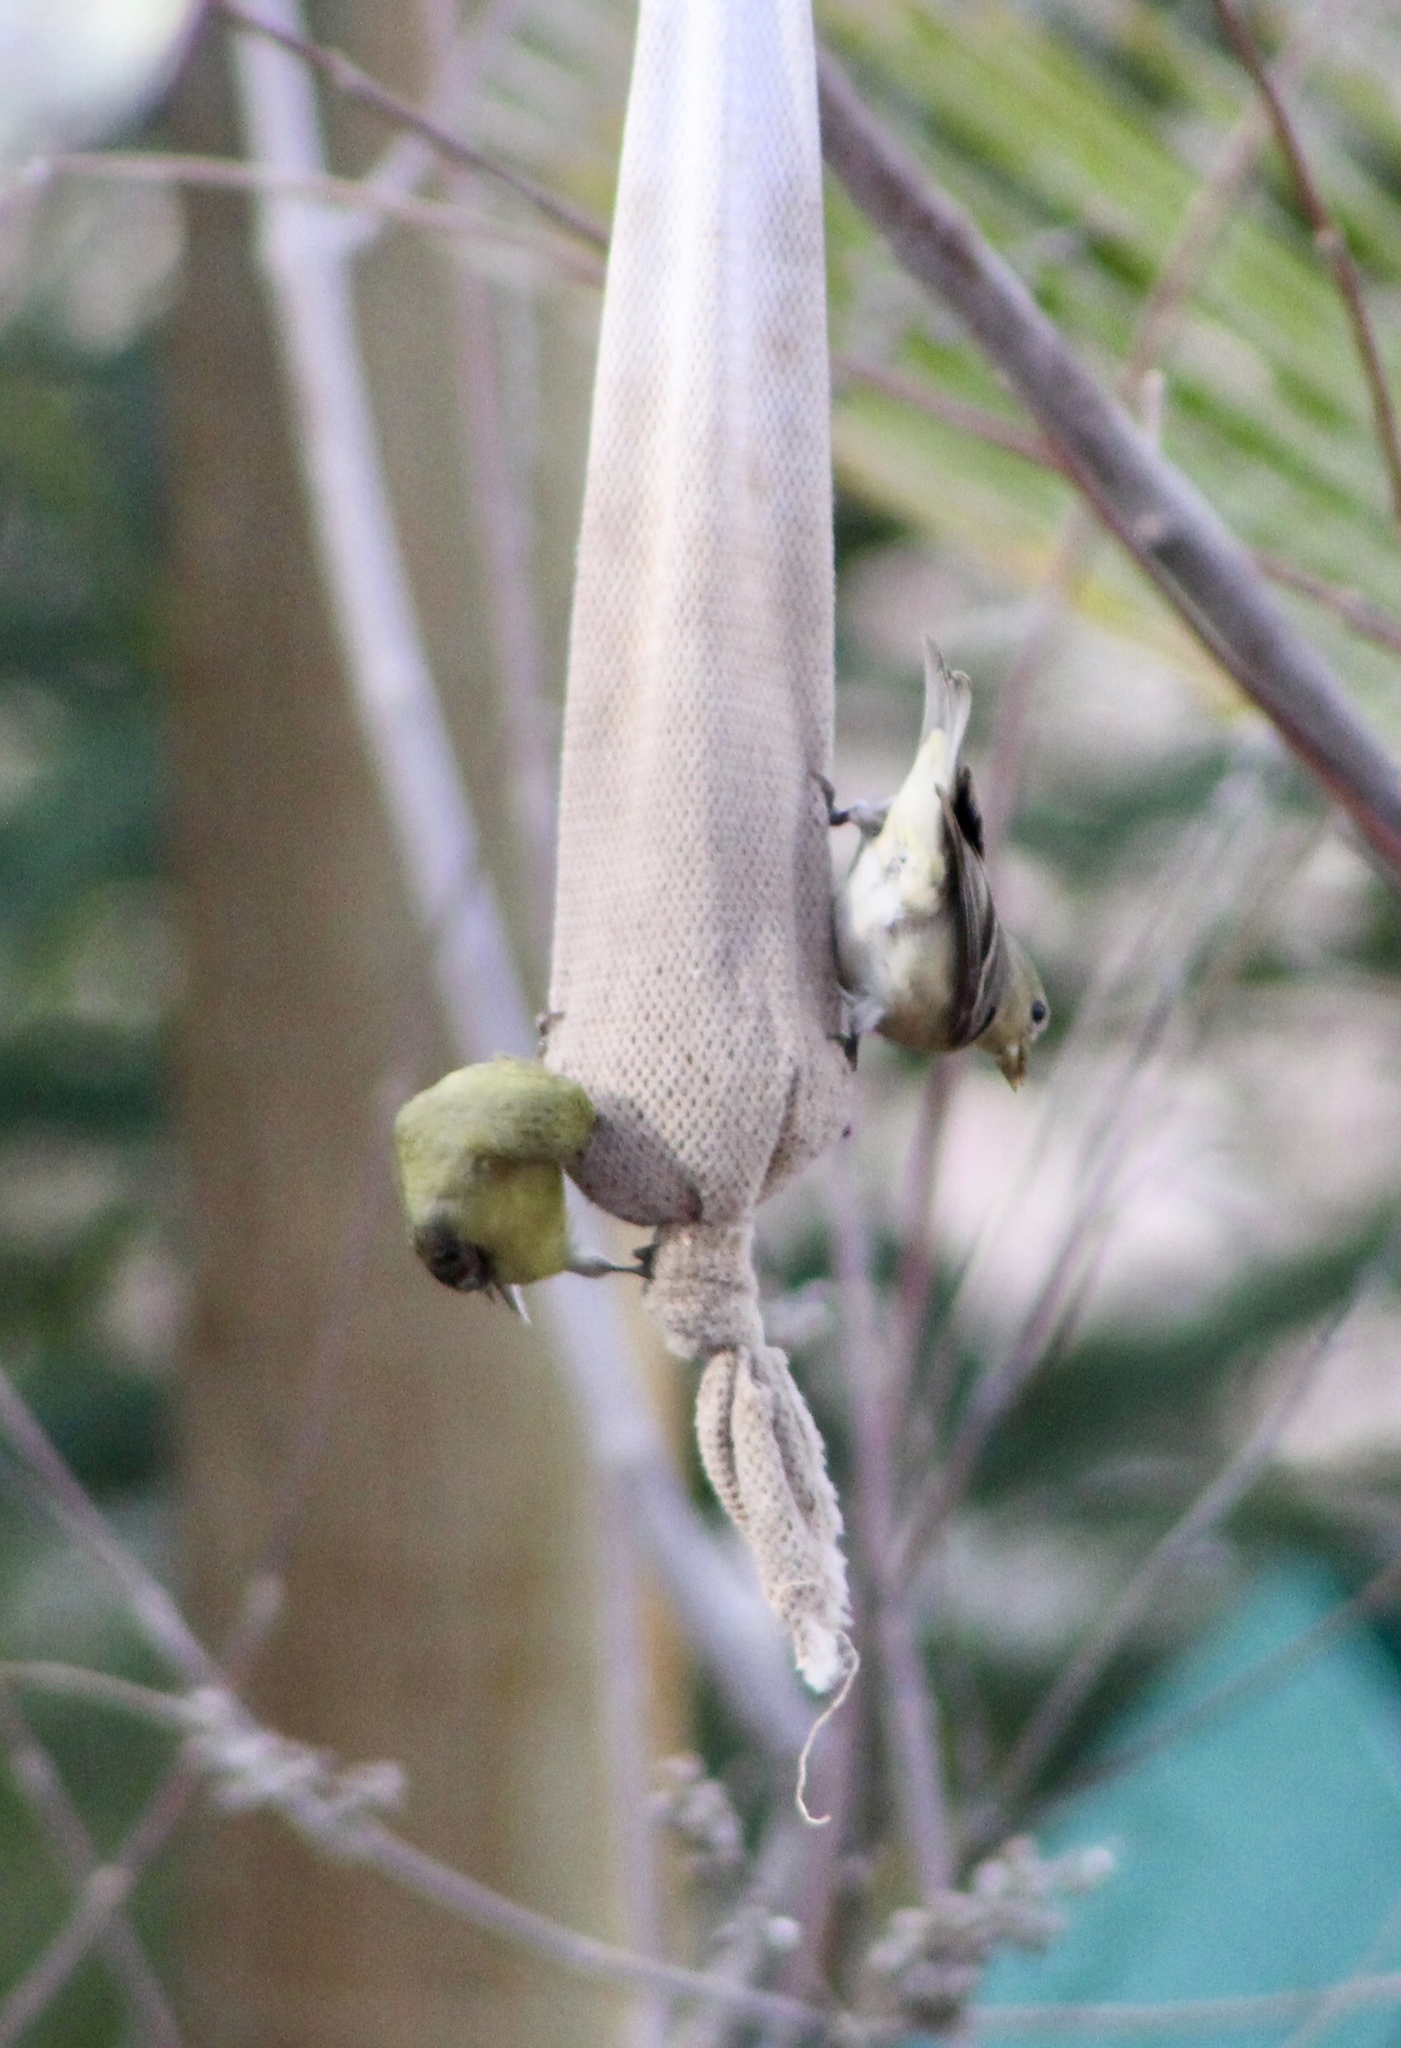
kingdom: Animalia
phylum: Chordata
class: Aves
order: Passeriformes
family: Fringillidae
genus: Spinus
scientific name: Spinus psaltria
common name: Lesser goldfinch
